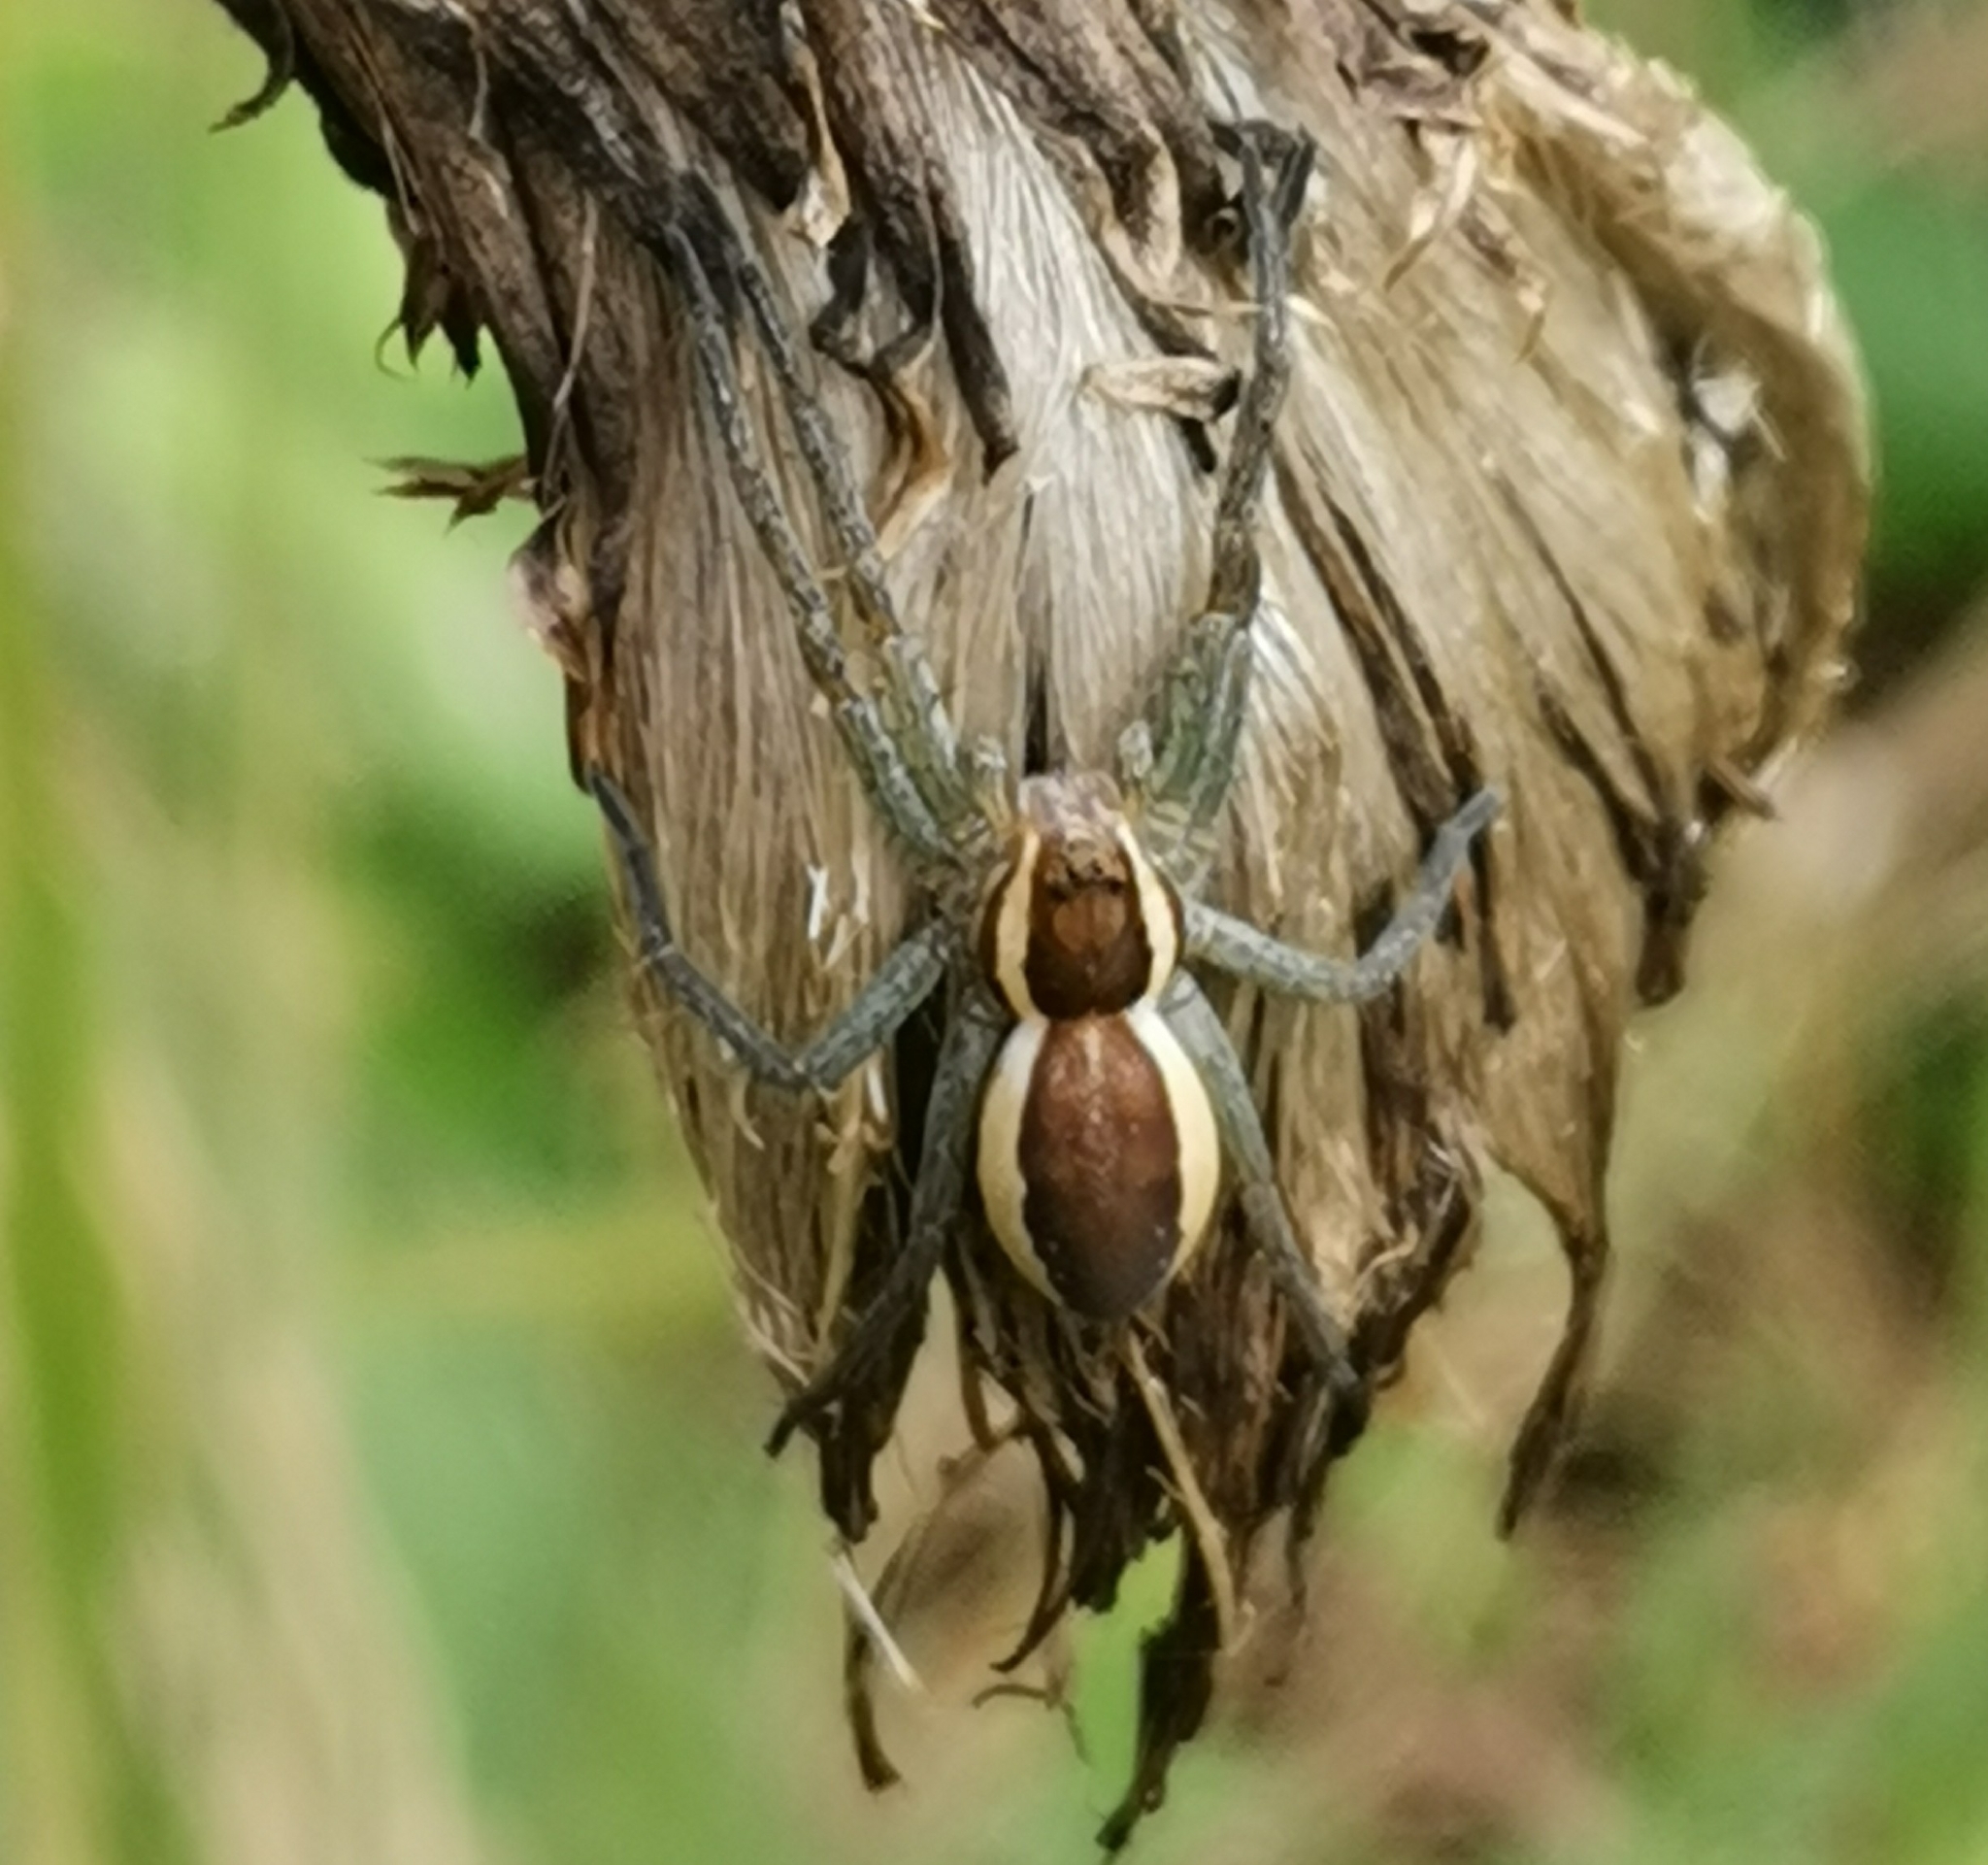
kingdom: Animalia
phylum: Arthropoda
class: Arachnida
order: Araneae
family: Pisauridae
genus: Dolomedes
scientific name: Dolomedes fimbriatus
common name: Raft spider
